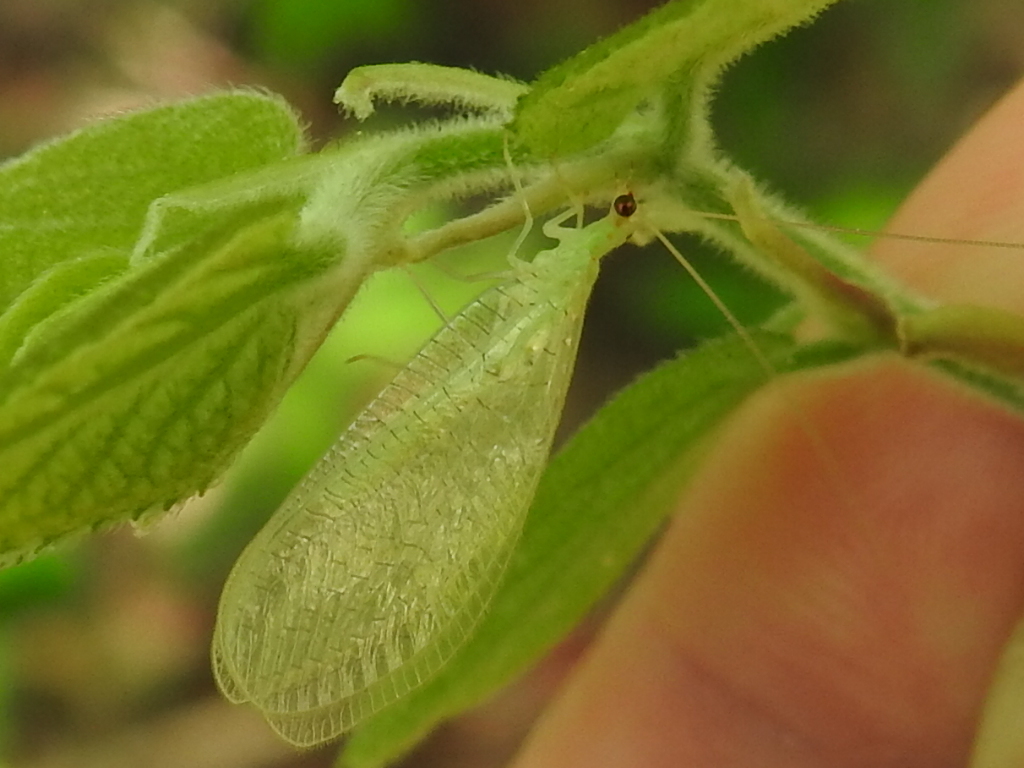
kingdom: Animalia
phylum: Arthropoda
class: Insecta
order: Neuroptera
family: Chrysopidae
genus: Chrysopa
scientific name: Chrysopa nigricornis
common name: Black-horned green lacewing
